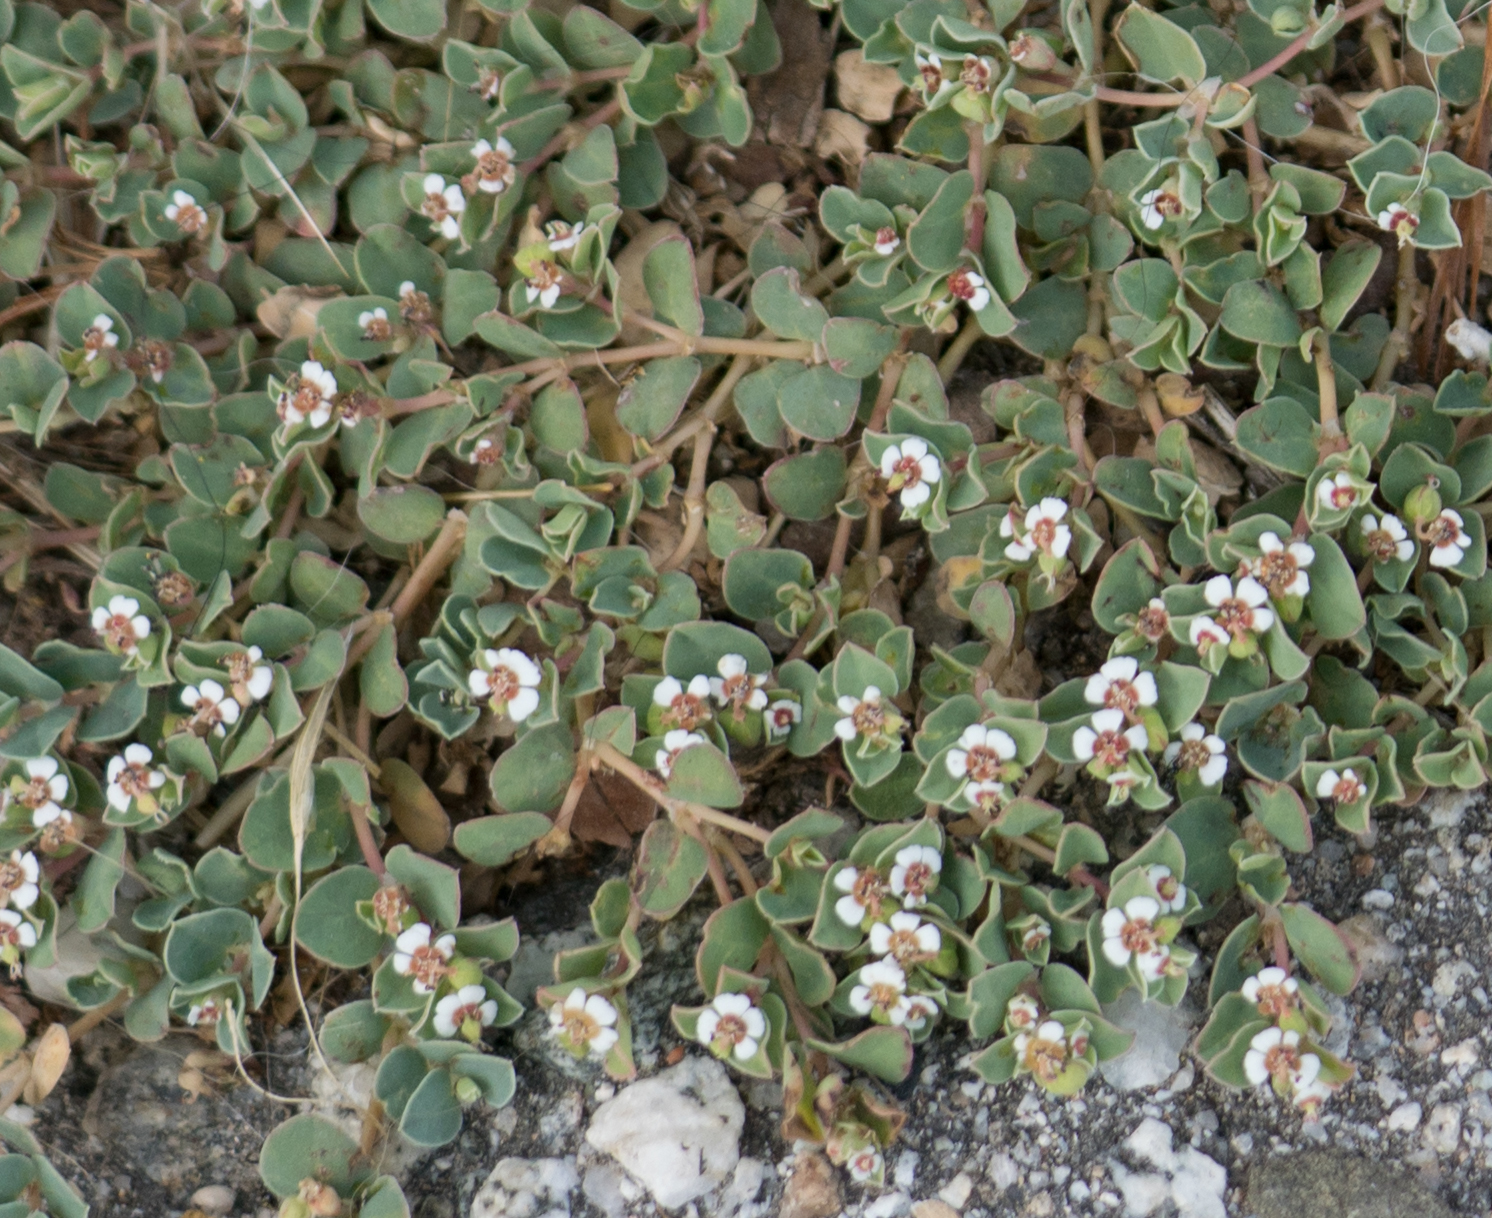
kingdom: Plantae
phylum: Tracheophyta
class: Magnoliopsida
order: Malpighiales
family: Euphorbiaceae
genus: Euphorbia
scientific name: Euphorbia albomarginata
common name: Whitemargin sandmat
